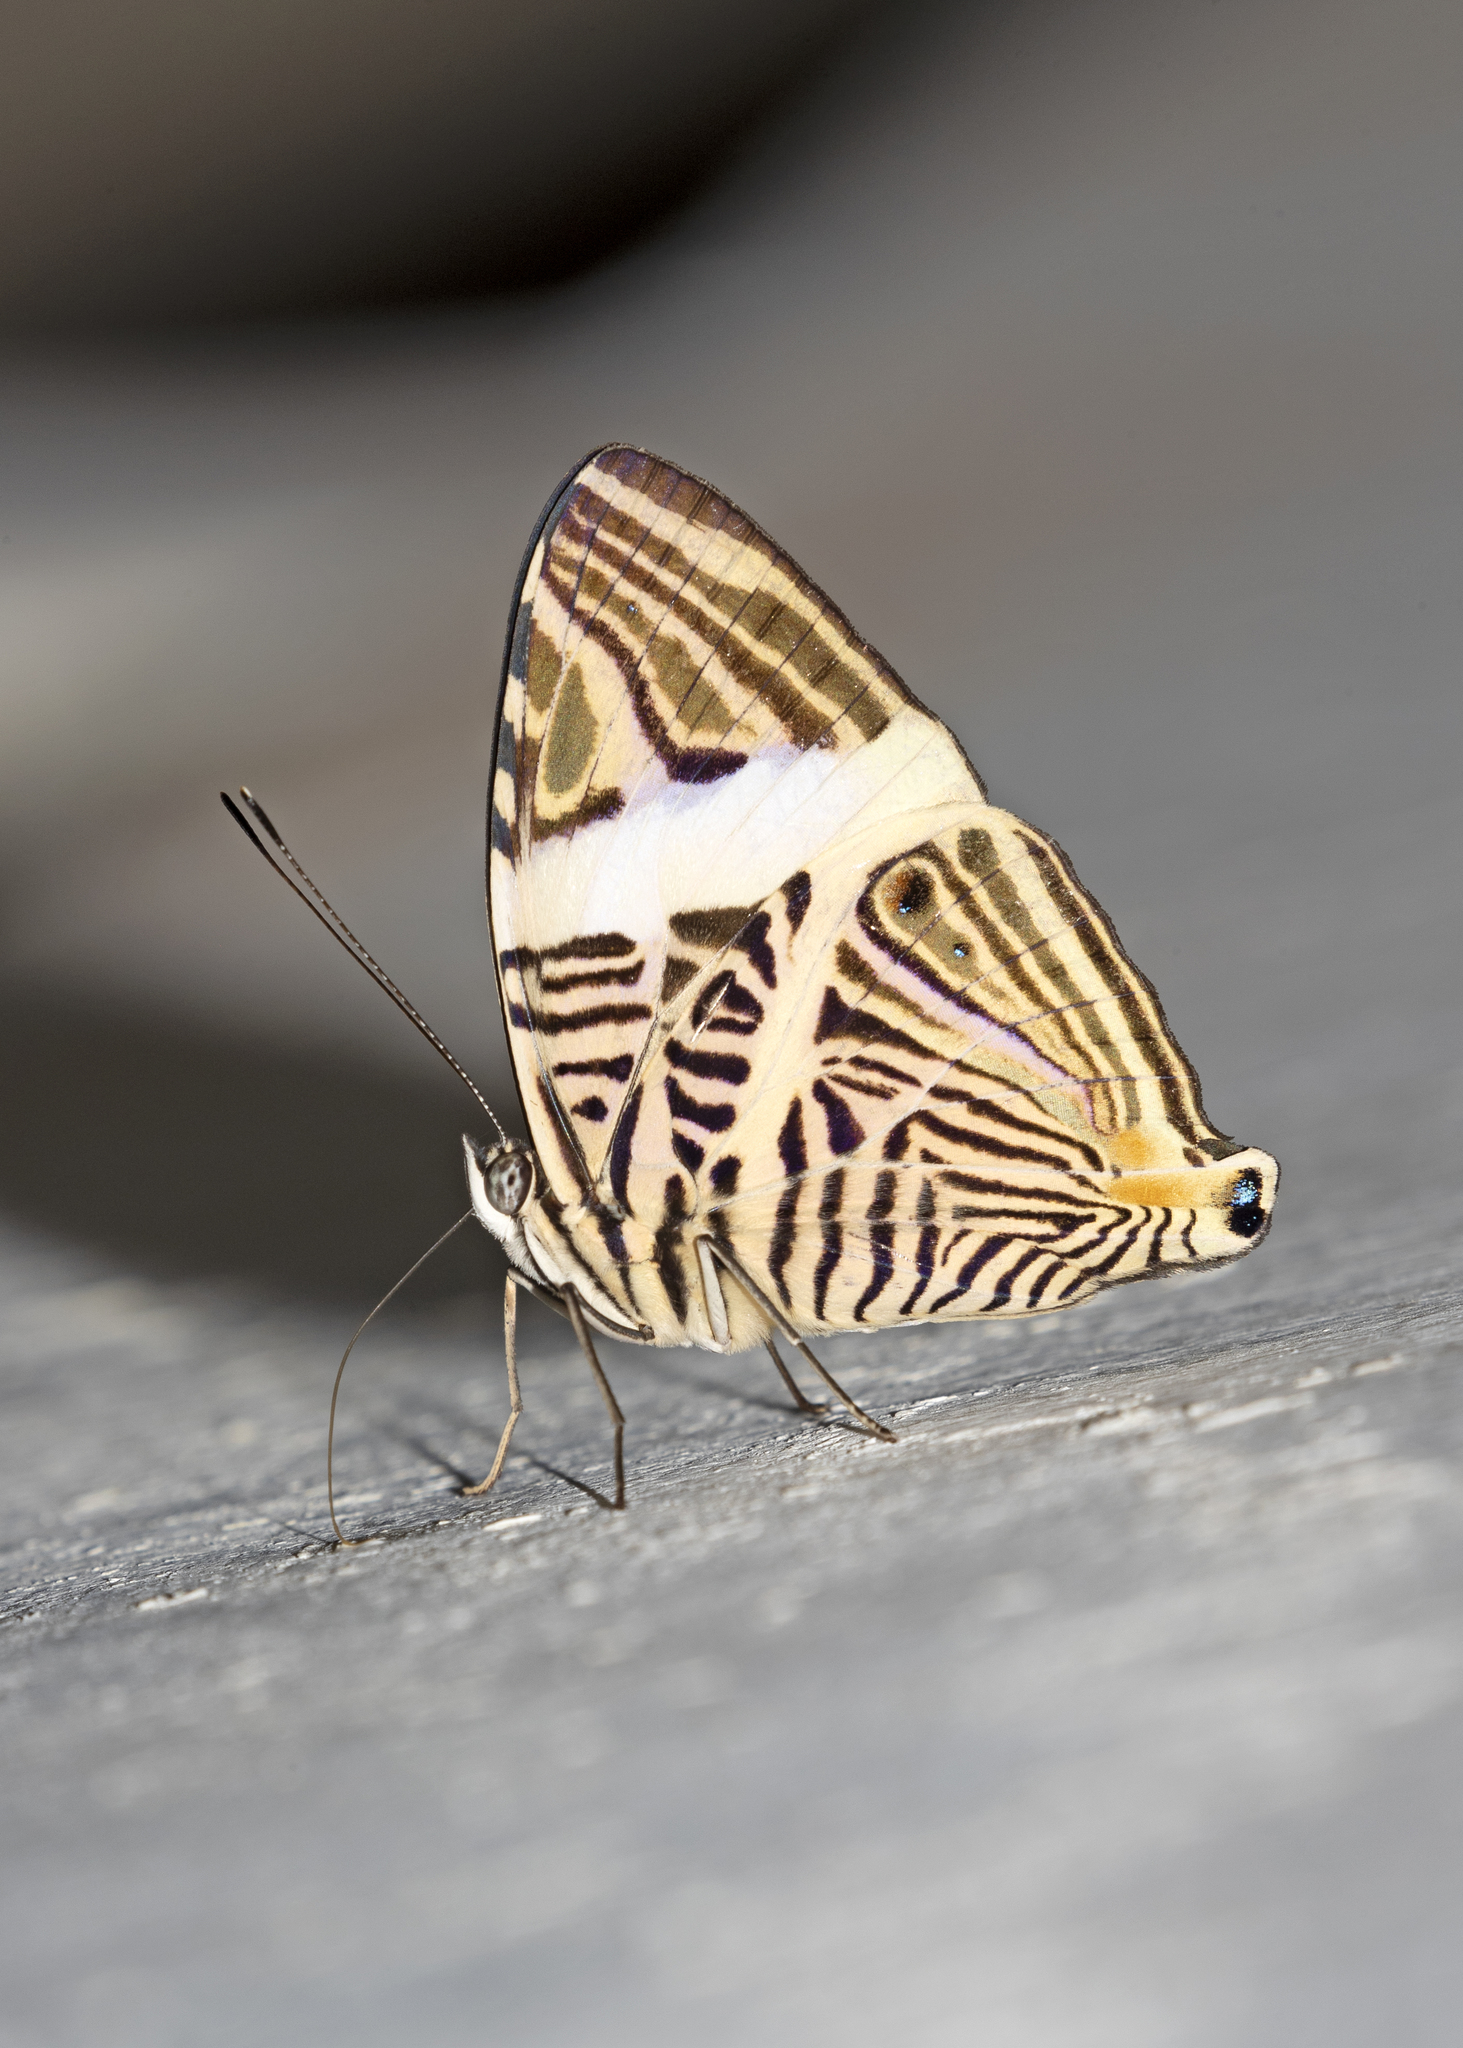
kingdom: Animalia
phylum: Arthropoda
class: Insecta
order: Lepidoptera
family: Nymphalidae
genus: Colobura
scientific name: Colobura dirce
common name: Dirce beauty
